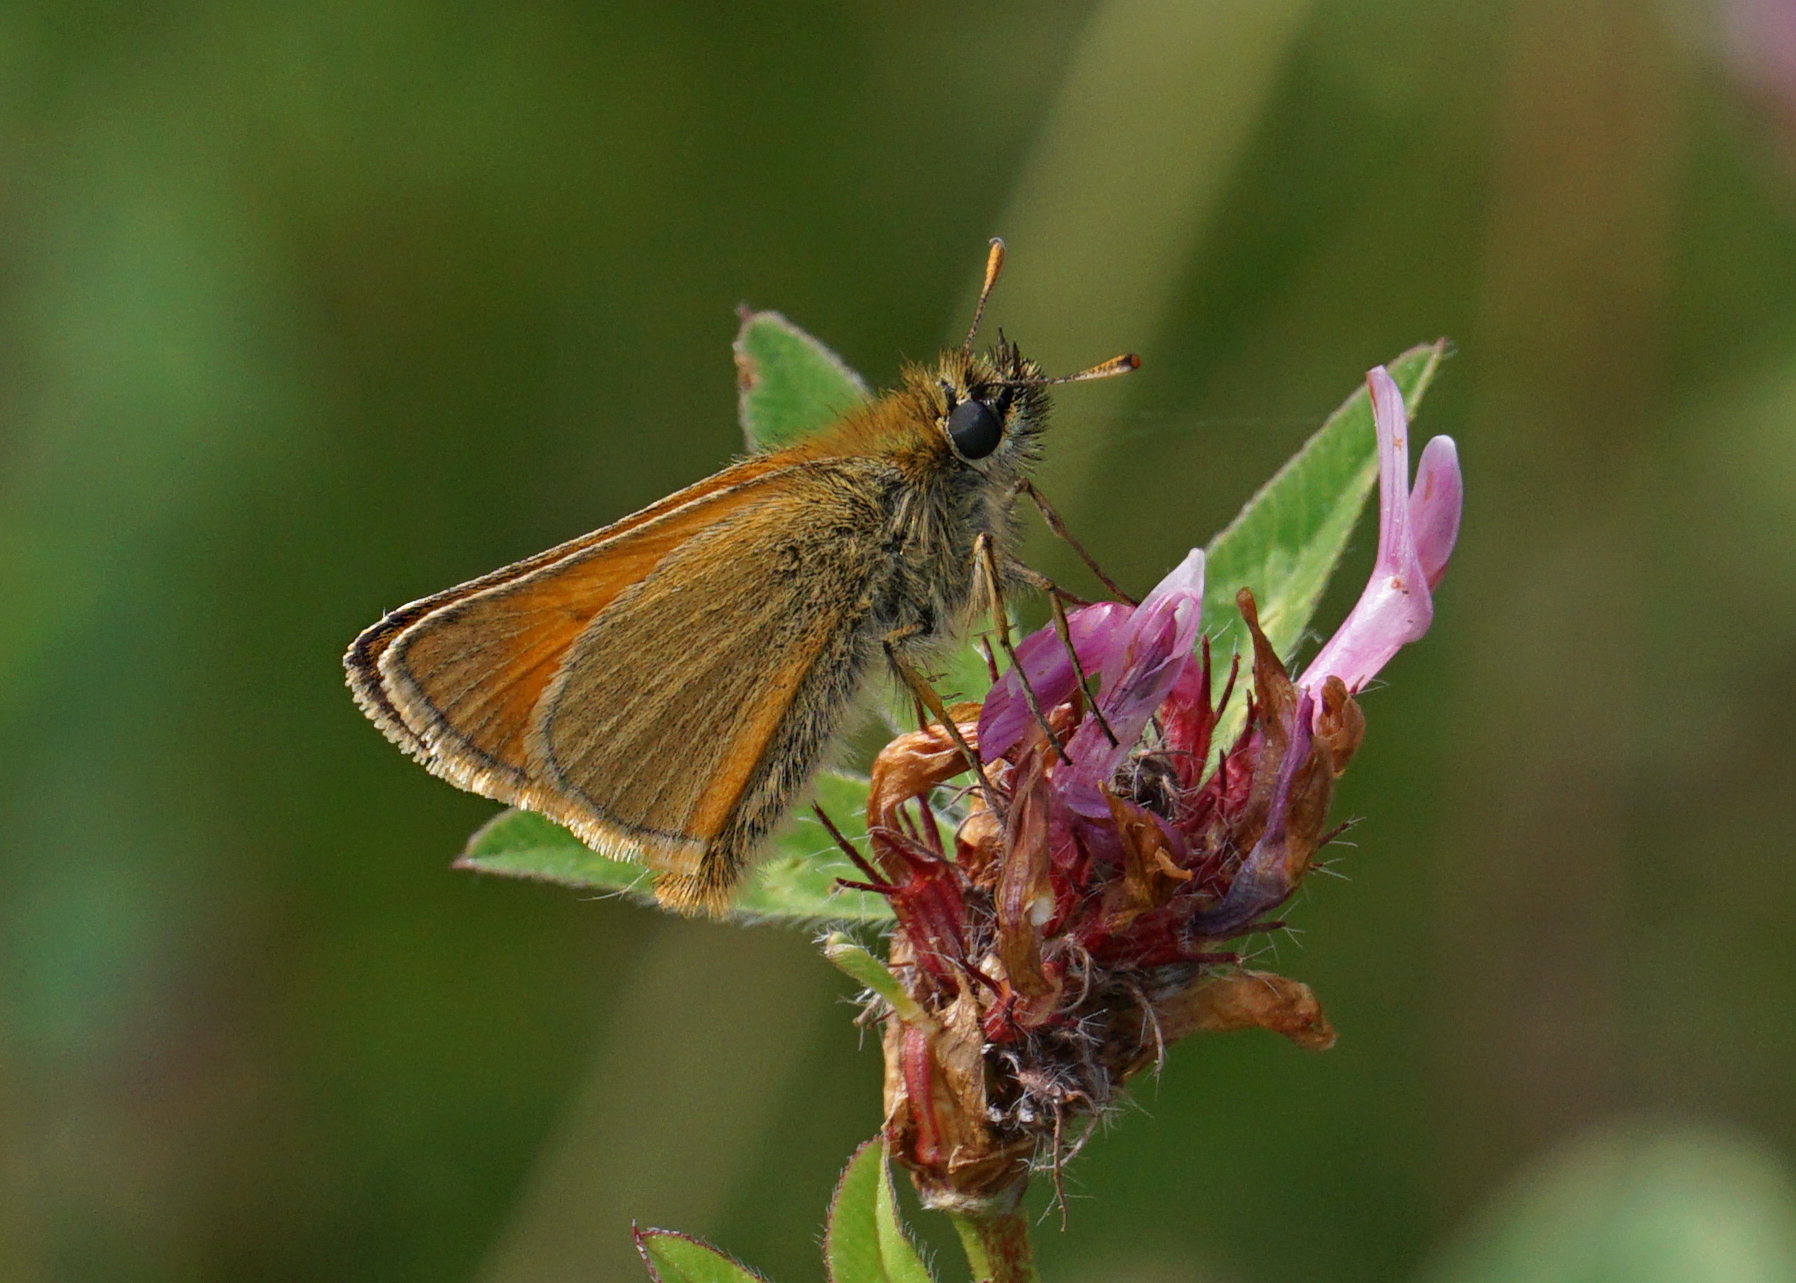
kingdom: Animalia
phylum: Arthropoda
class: Insecta
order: Lepidoptera
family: Hesperiidae
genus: Thymelicus
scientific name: Thymelicus sylvestris
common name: Small skipper
